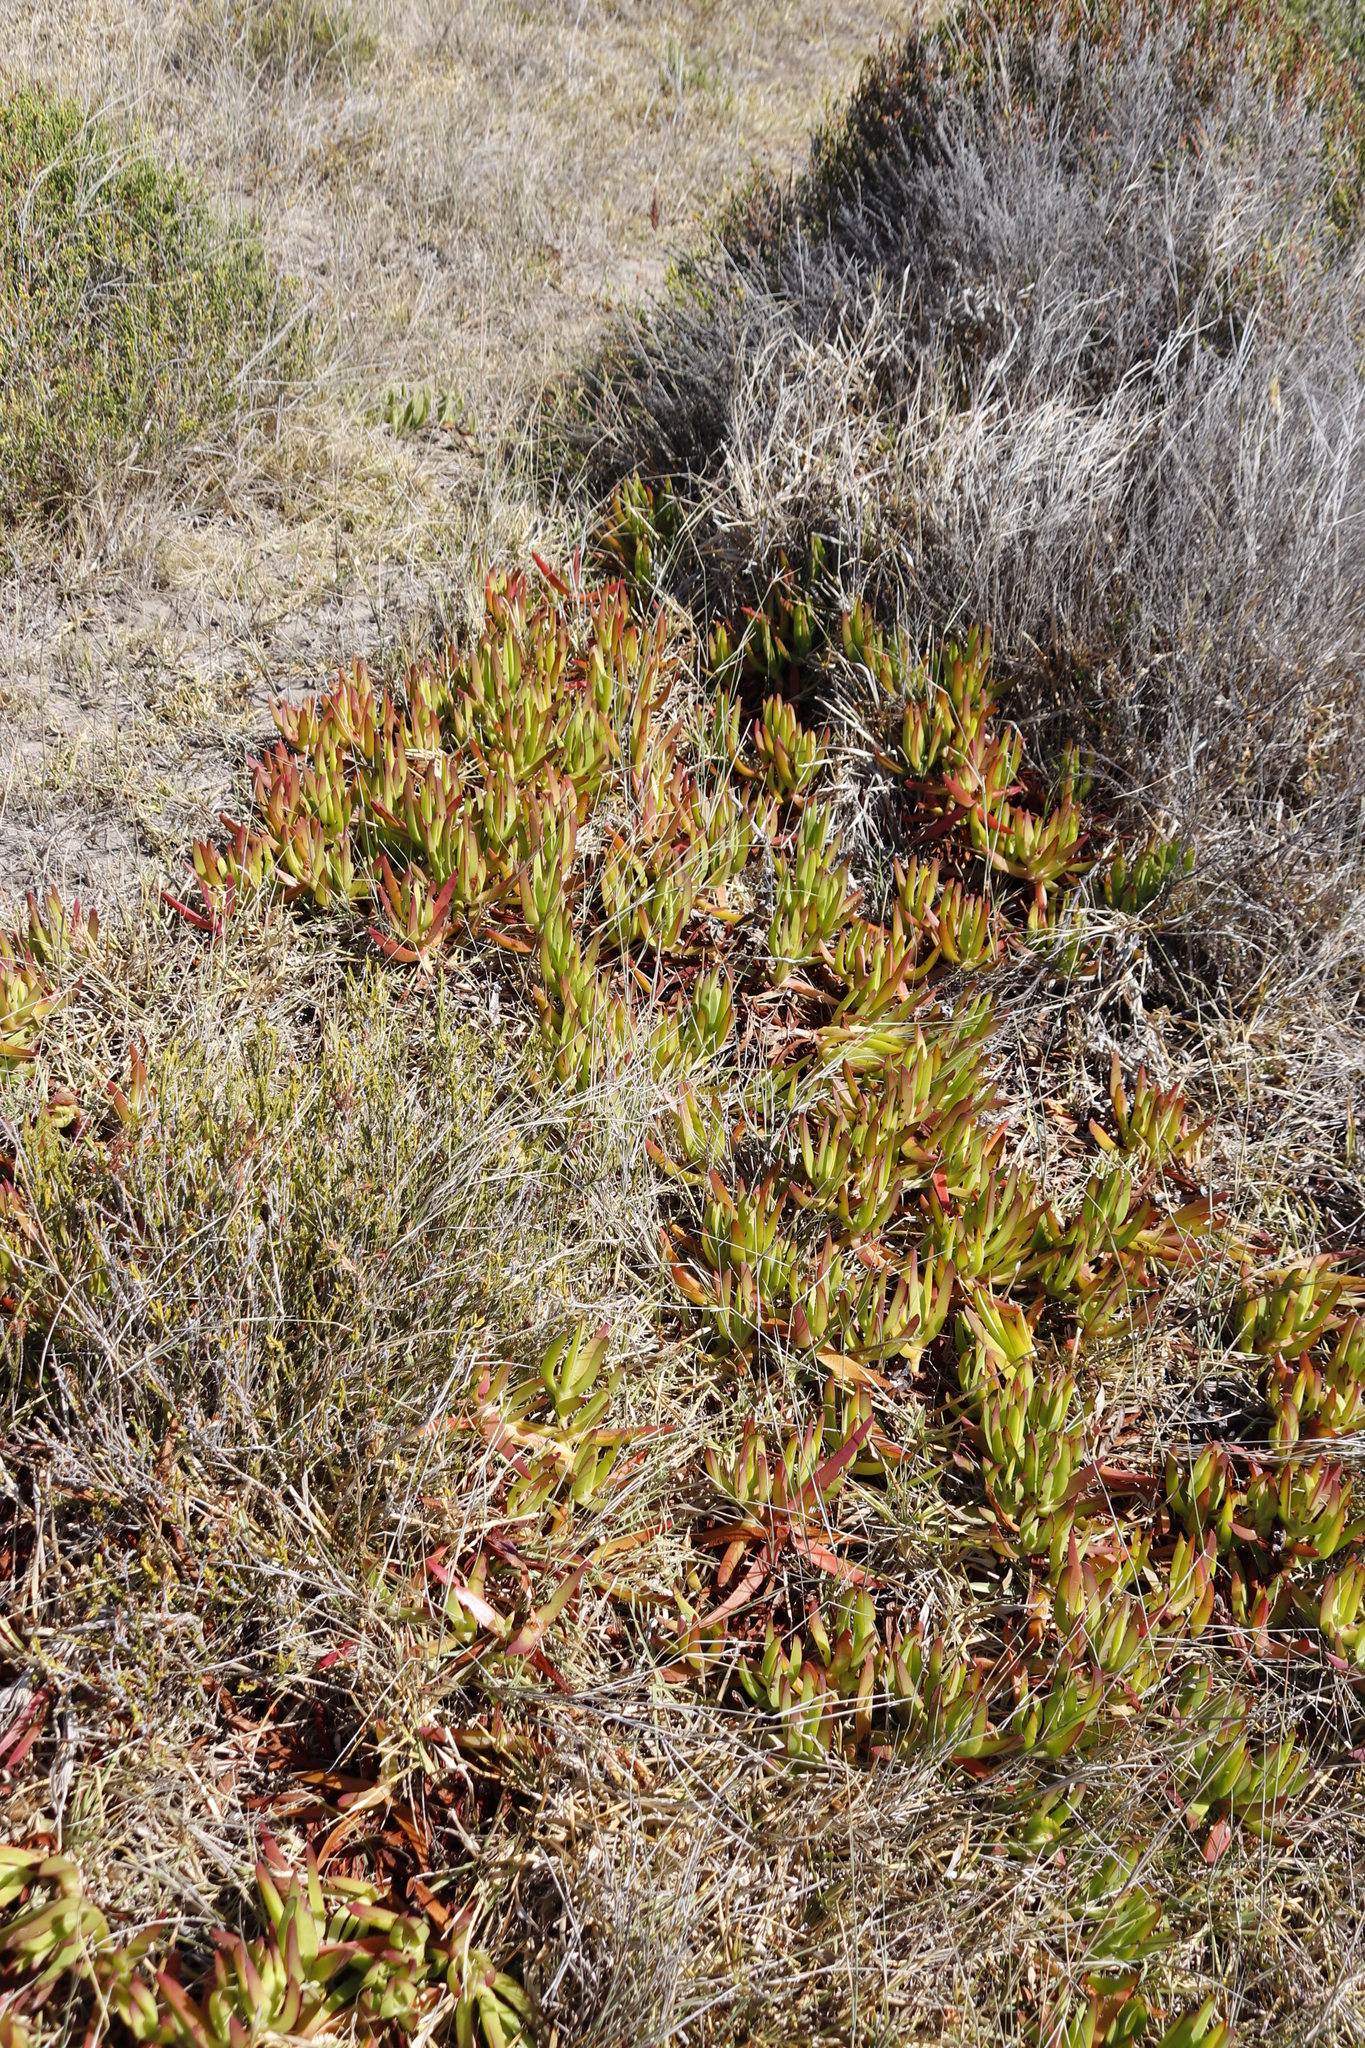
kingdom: Plantae
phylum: Tracheophyta
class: Magnoliopsida
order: Caryophyllales
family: Aizoaceae
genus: Carpobrotus
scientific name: Carpobrotus edulis
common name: Hottentot-fig
